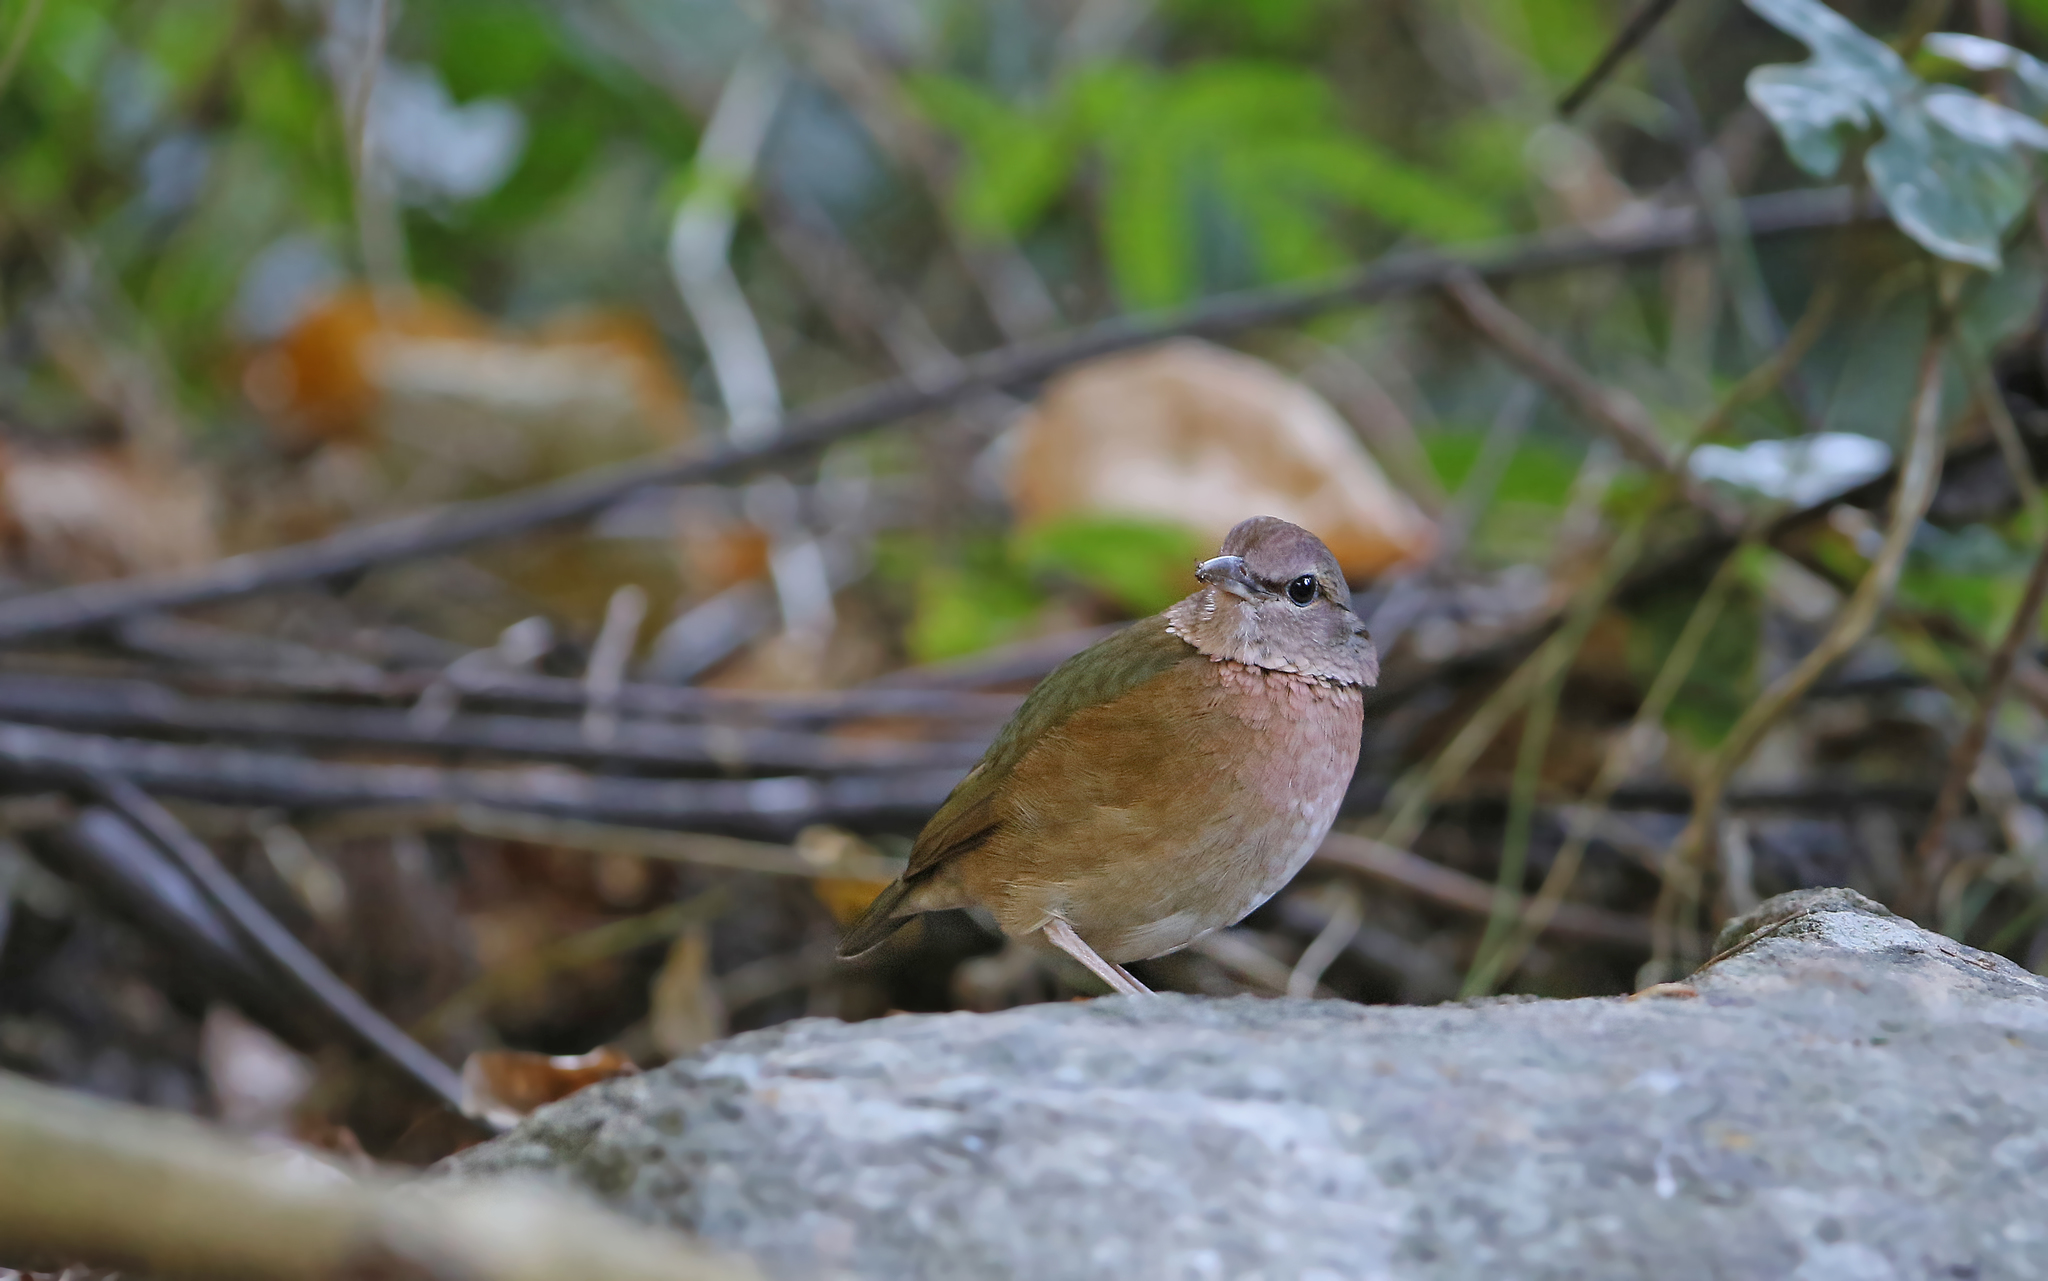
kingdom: Animalia
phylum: Chordata
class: Aves
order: Passeriformes
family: Pittidae
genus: Pitta
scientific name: Pitta soror
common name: Blue-rumped pitta
